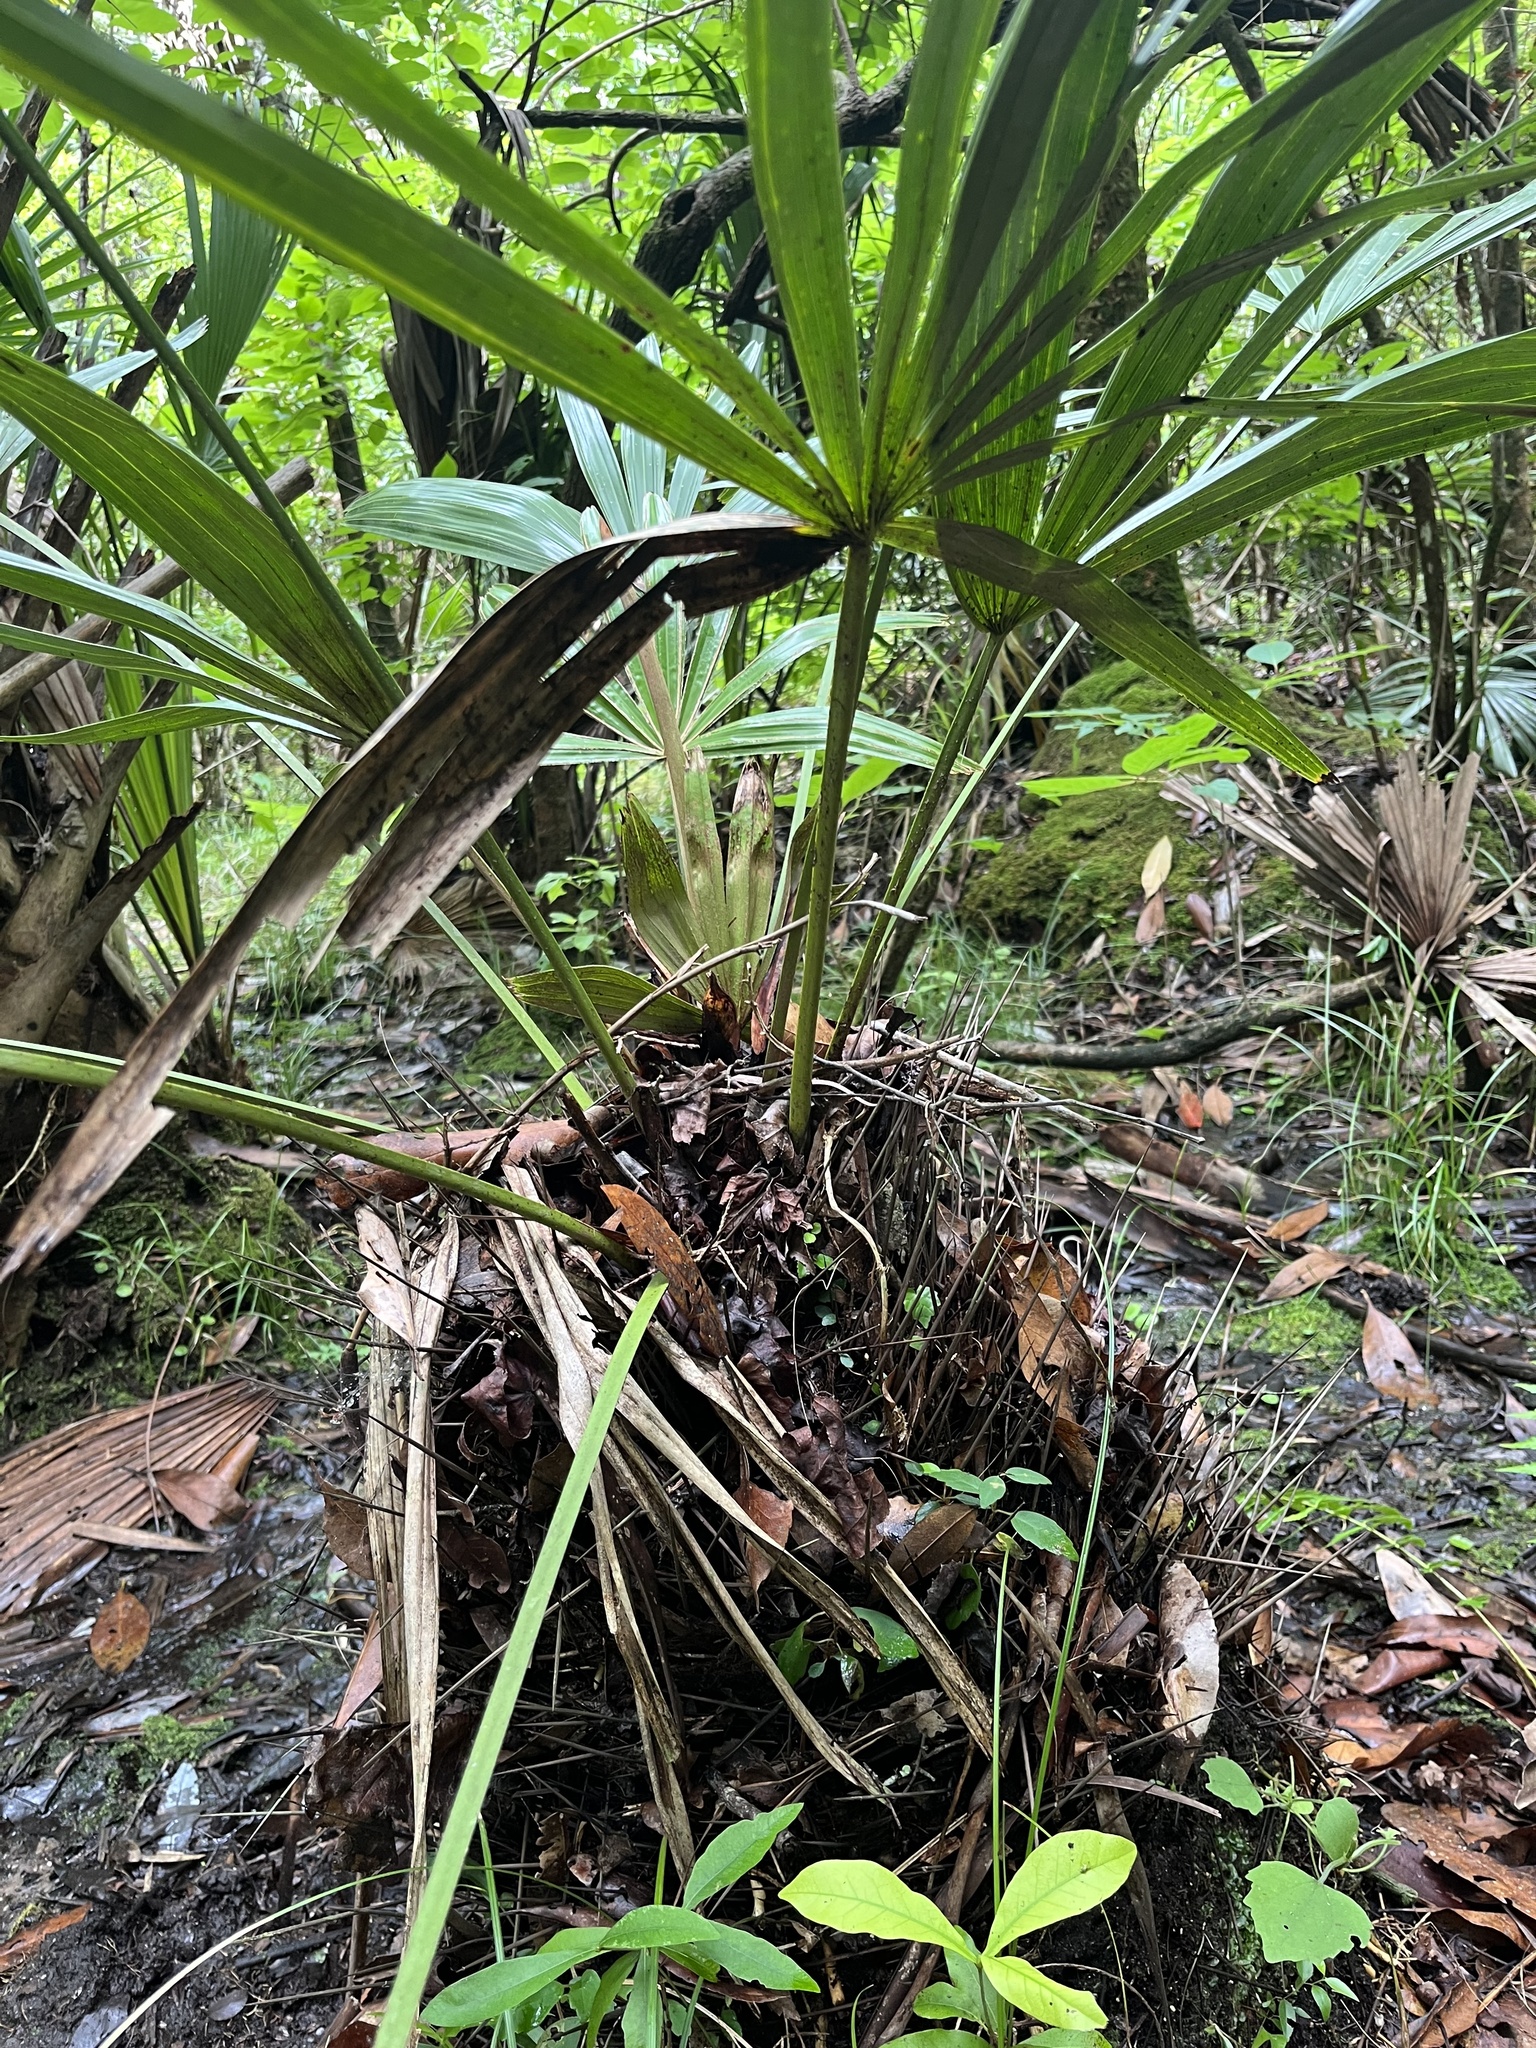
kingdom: Plantae
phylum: Tracheophyta
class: Liliopsida
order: Arecales
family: Arecaceae
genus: Rhapidophyllum
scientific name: Rhapidophyllum hystrix
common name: Porcupine palm
